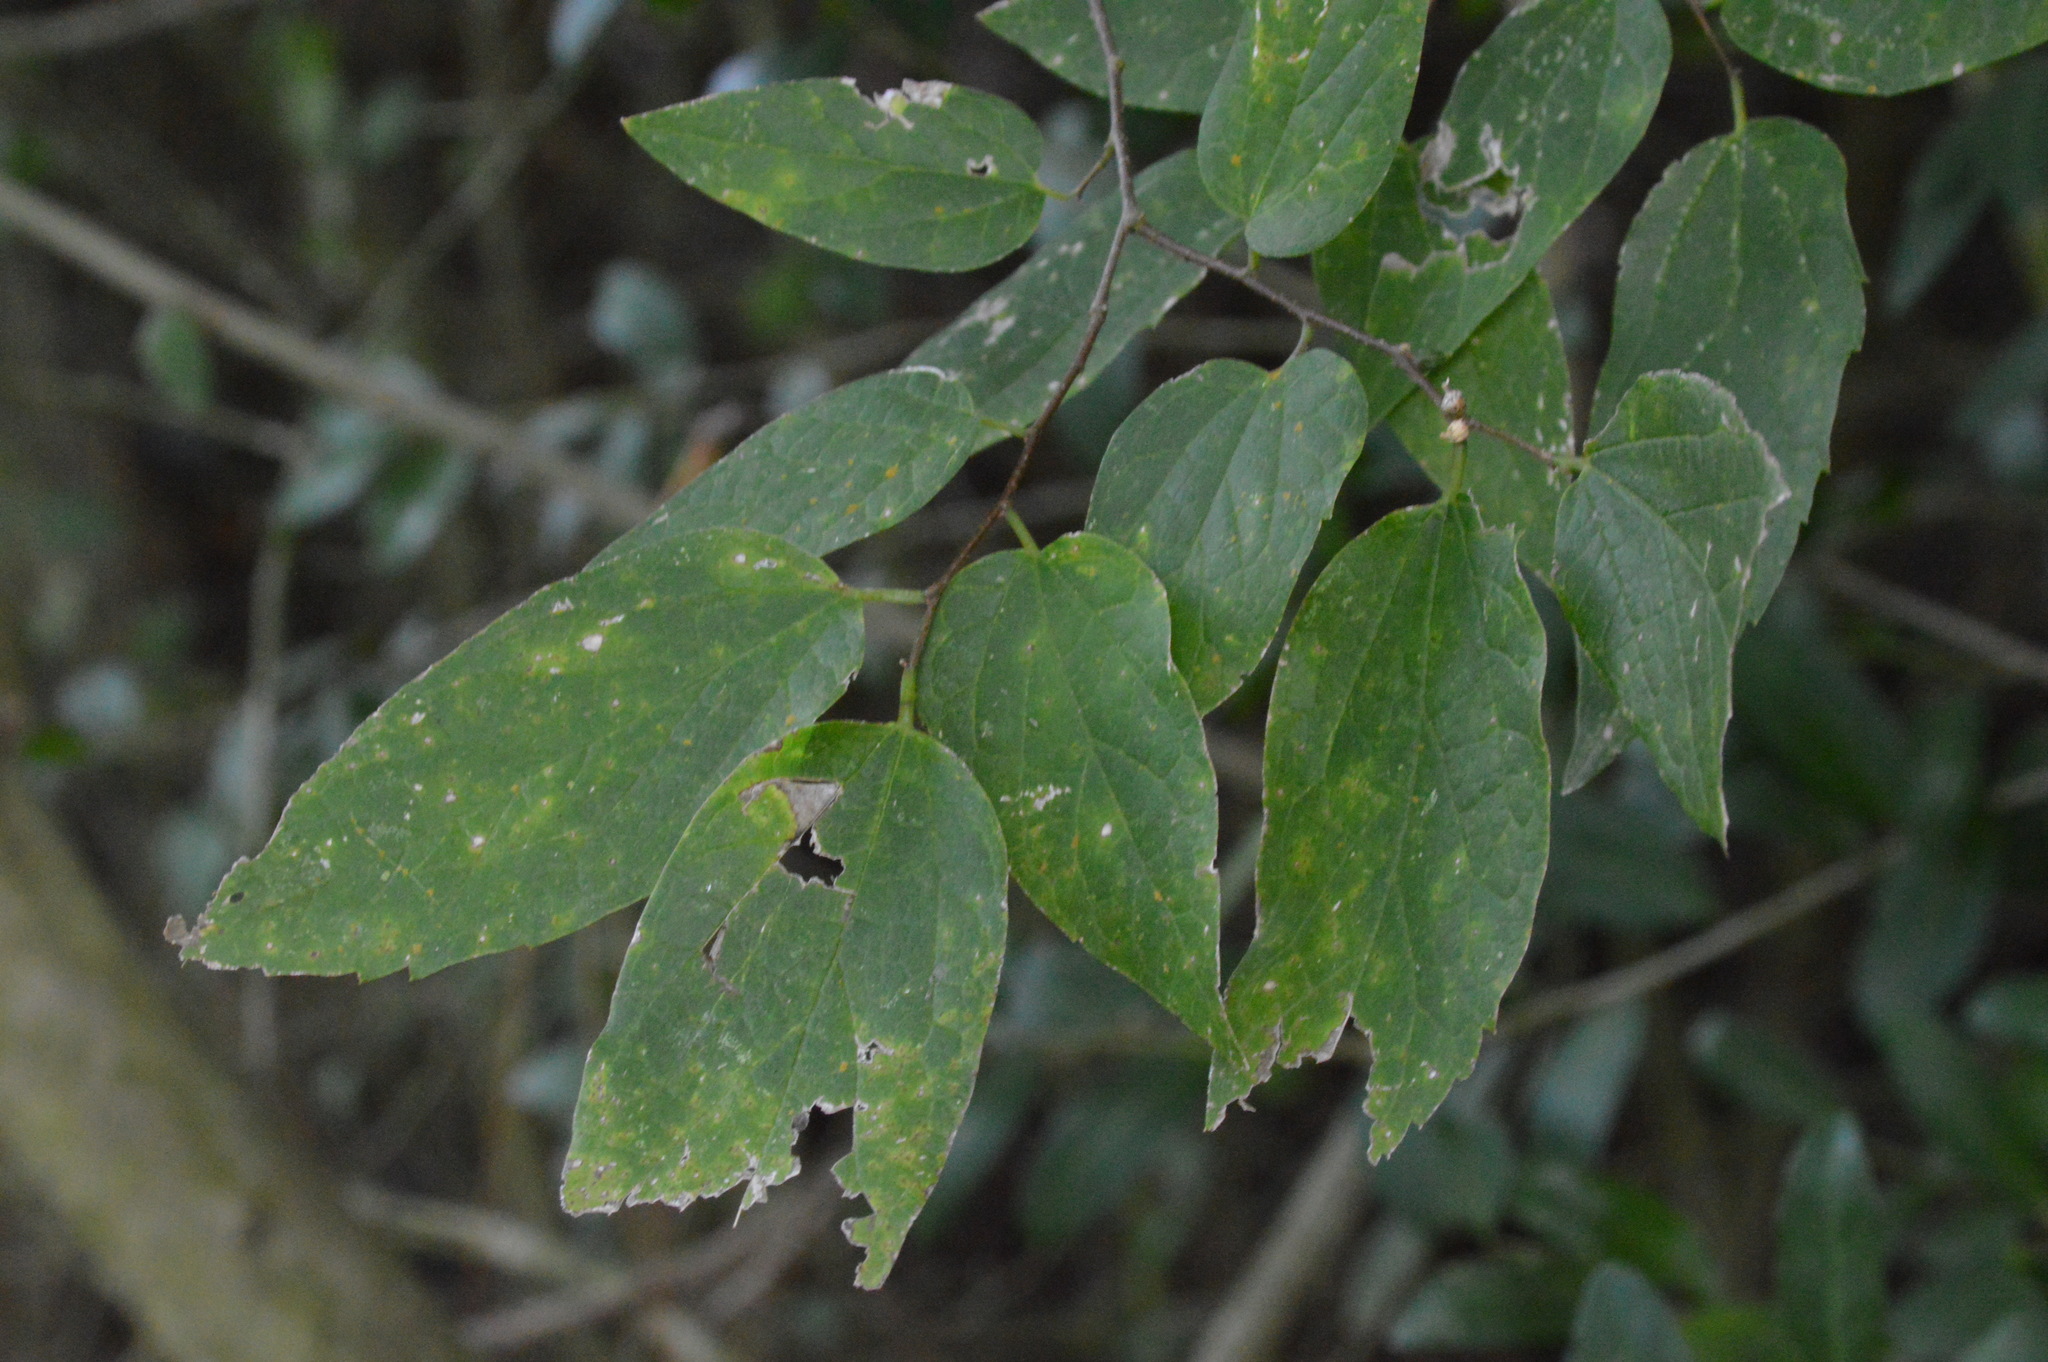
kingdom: Plantae
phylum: Tracheophyta
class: Magnoliopsida
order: Rosales
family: Cannabaceae
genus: Celtis
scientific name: Celtis laevigata
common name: Sugarberry
